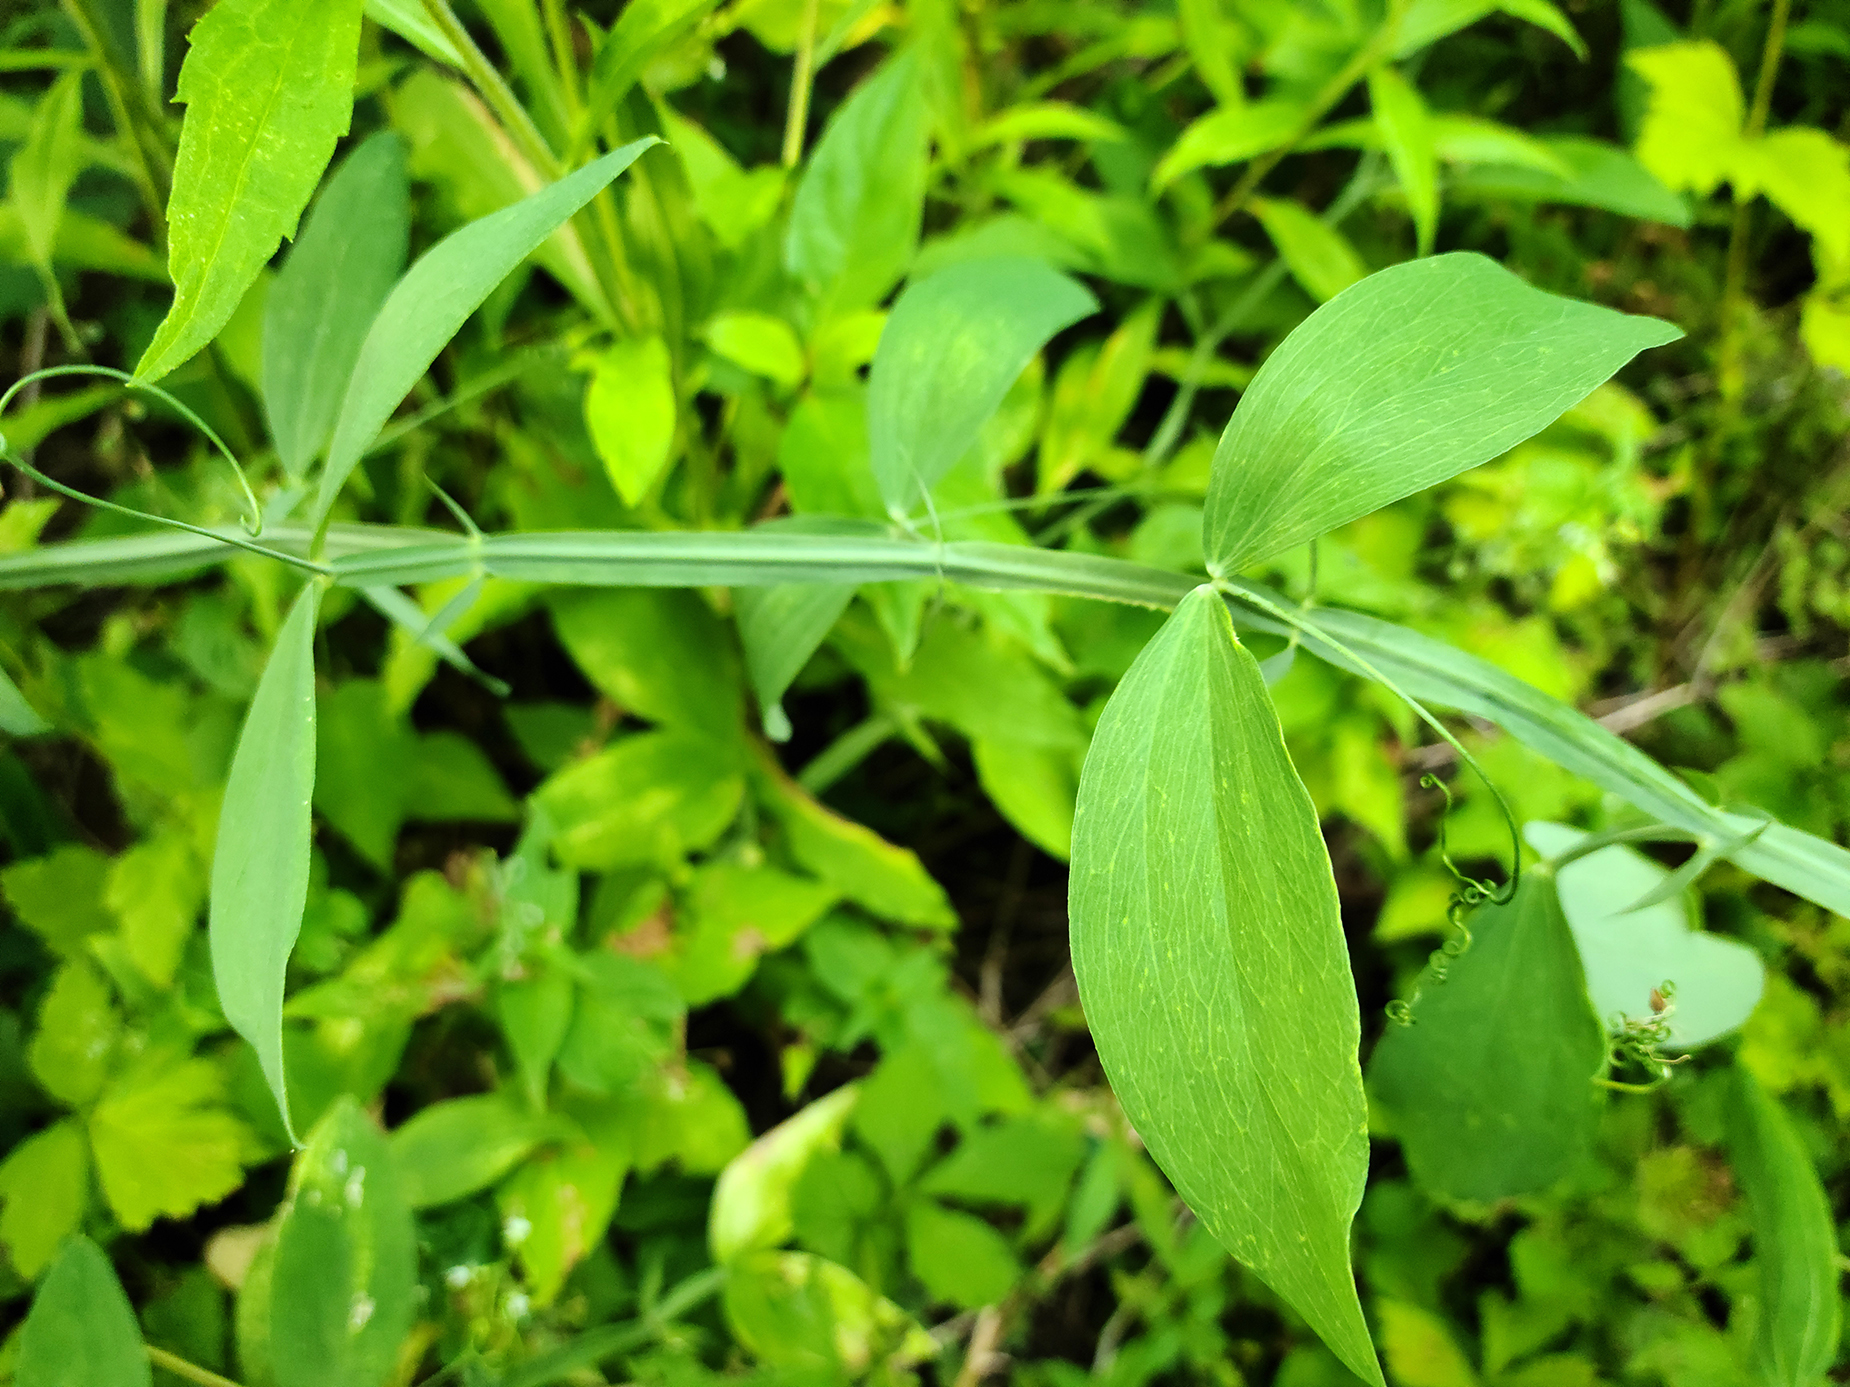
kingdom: Plantae
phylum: Tracheophyta
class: Magnoliopsida
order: Fabales
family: Fabaceae
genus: Lathyrus
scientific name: Lathyrus latifolius
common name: Perennial pea
